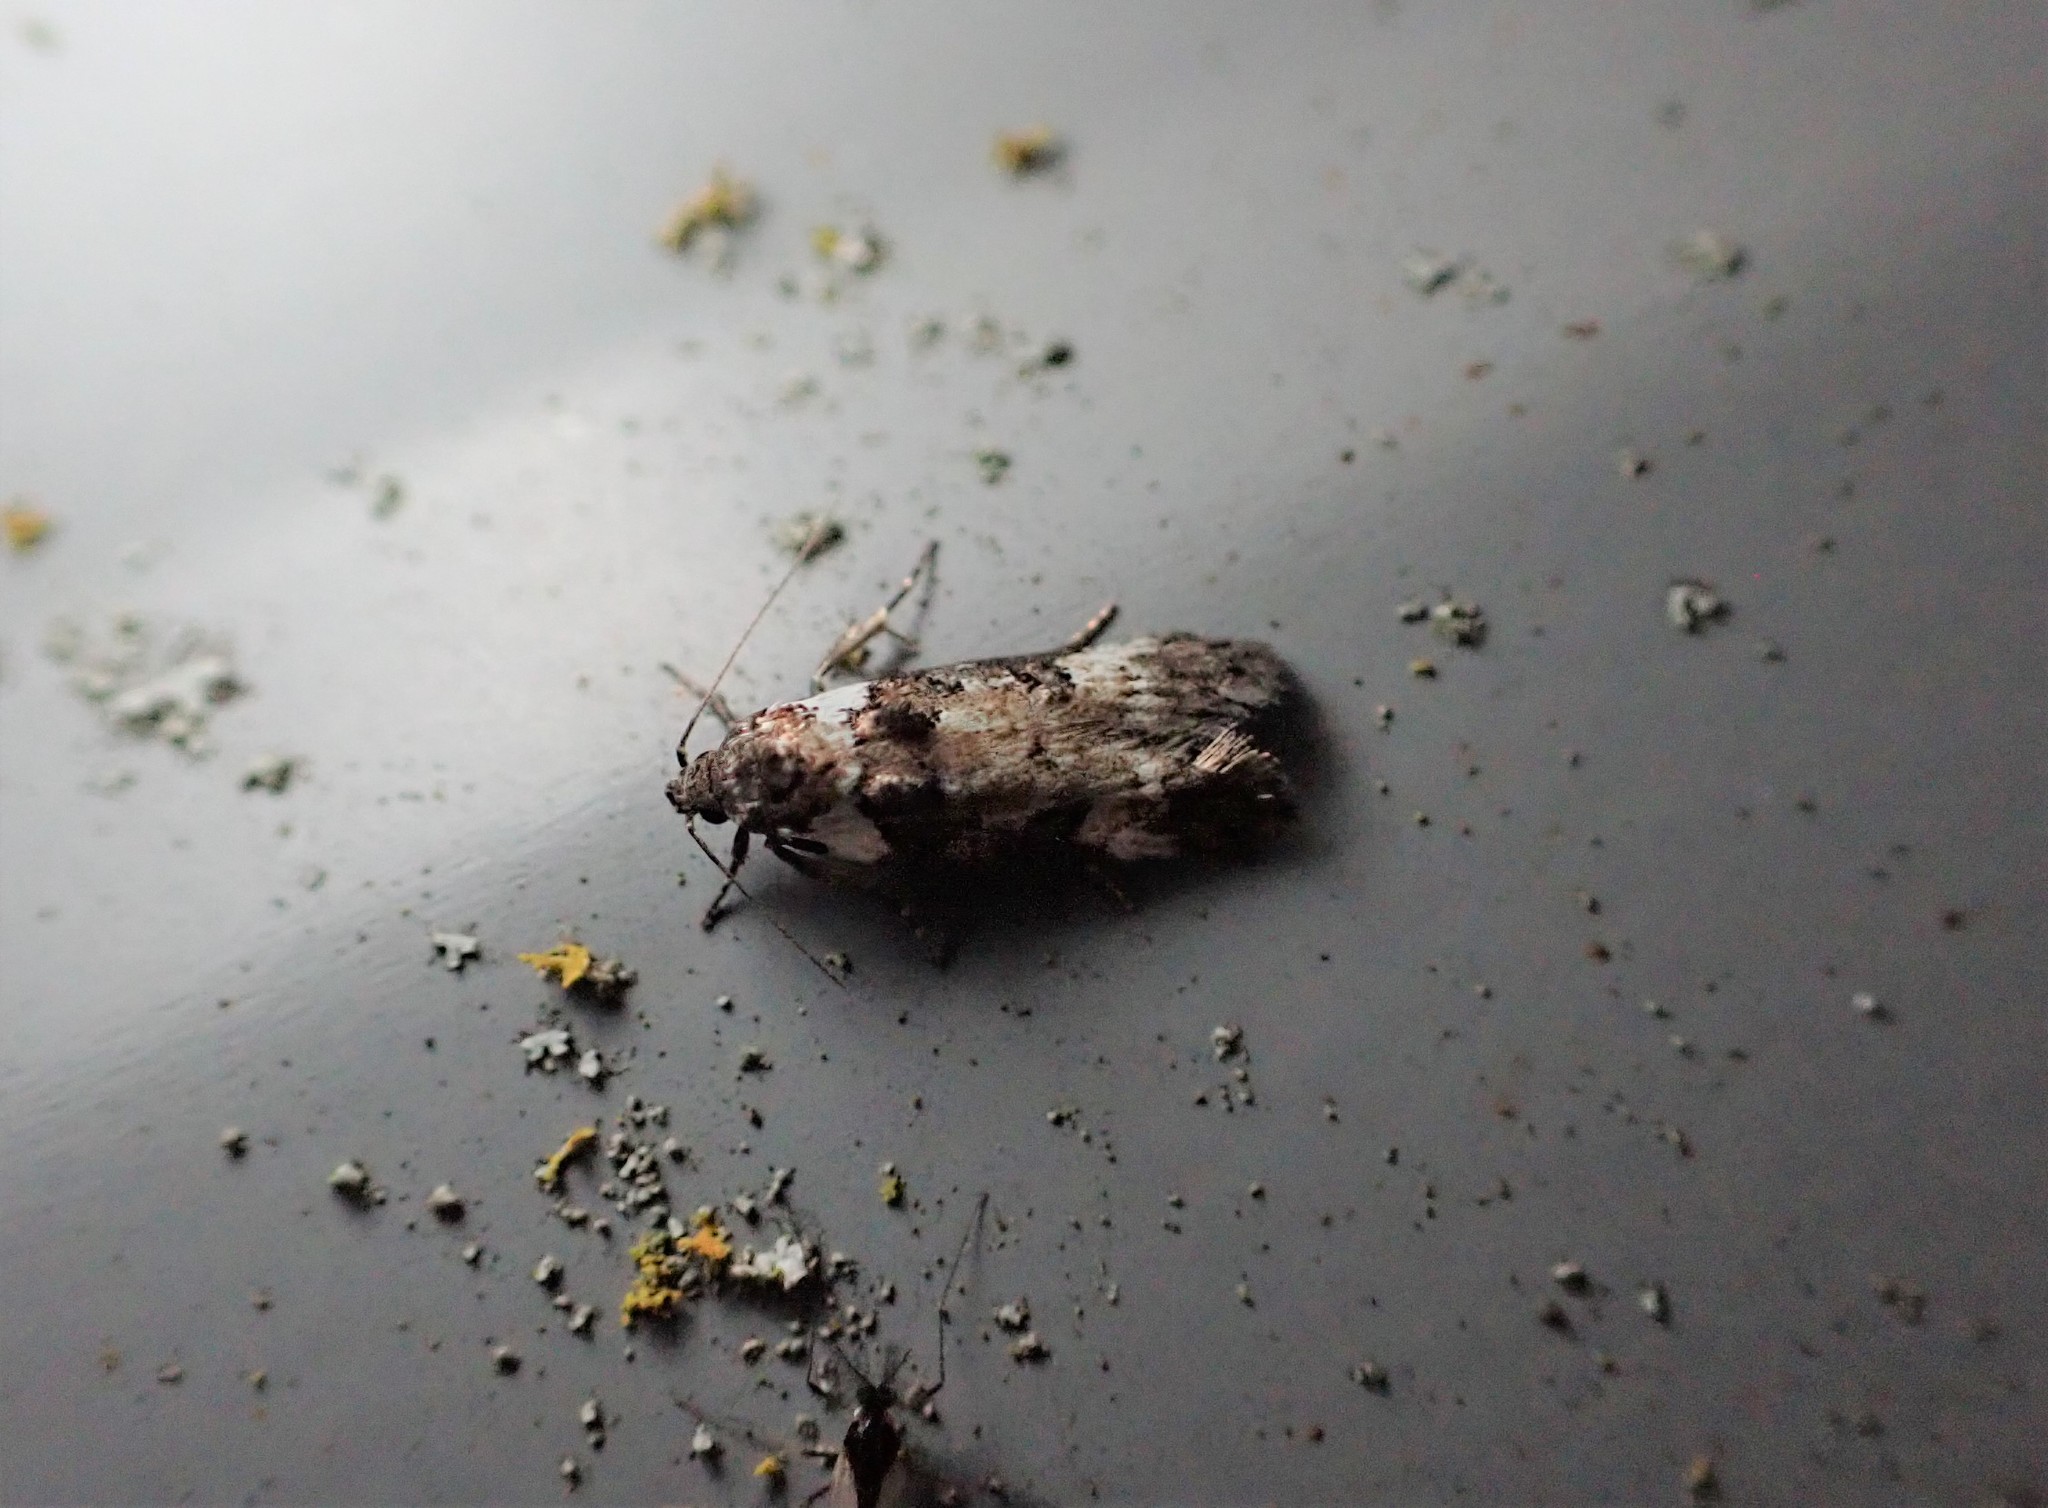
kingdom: Animalia
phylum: Arthropoda
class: Insecta
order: Lepidoptera
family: Oecophoridae
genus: Trachypepla
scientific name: Trachypepla conspicuella
